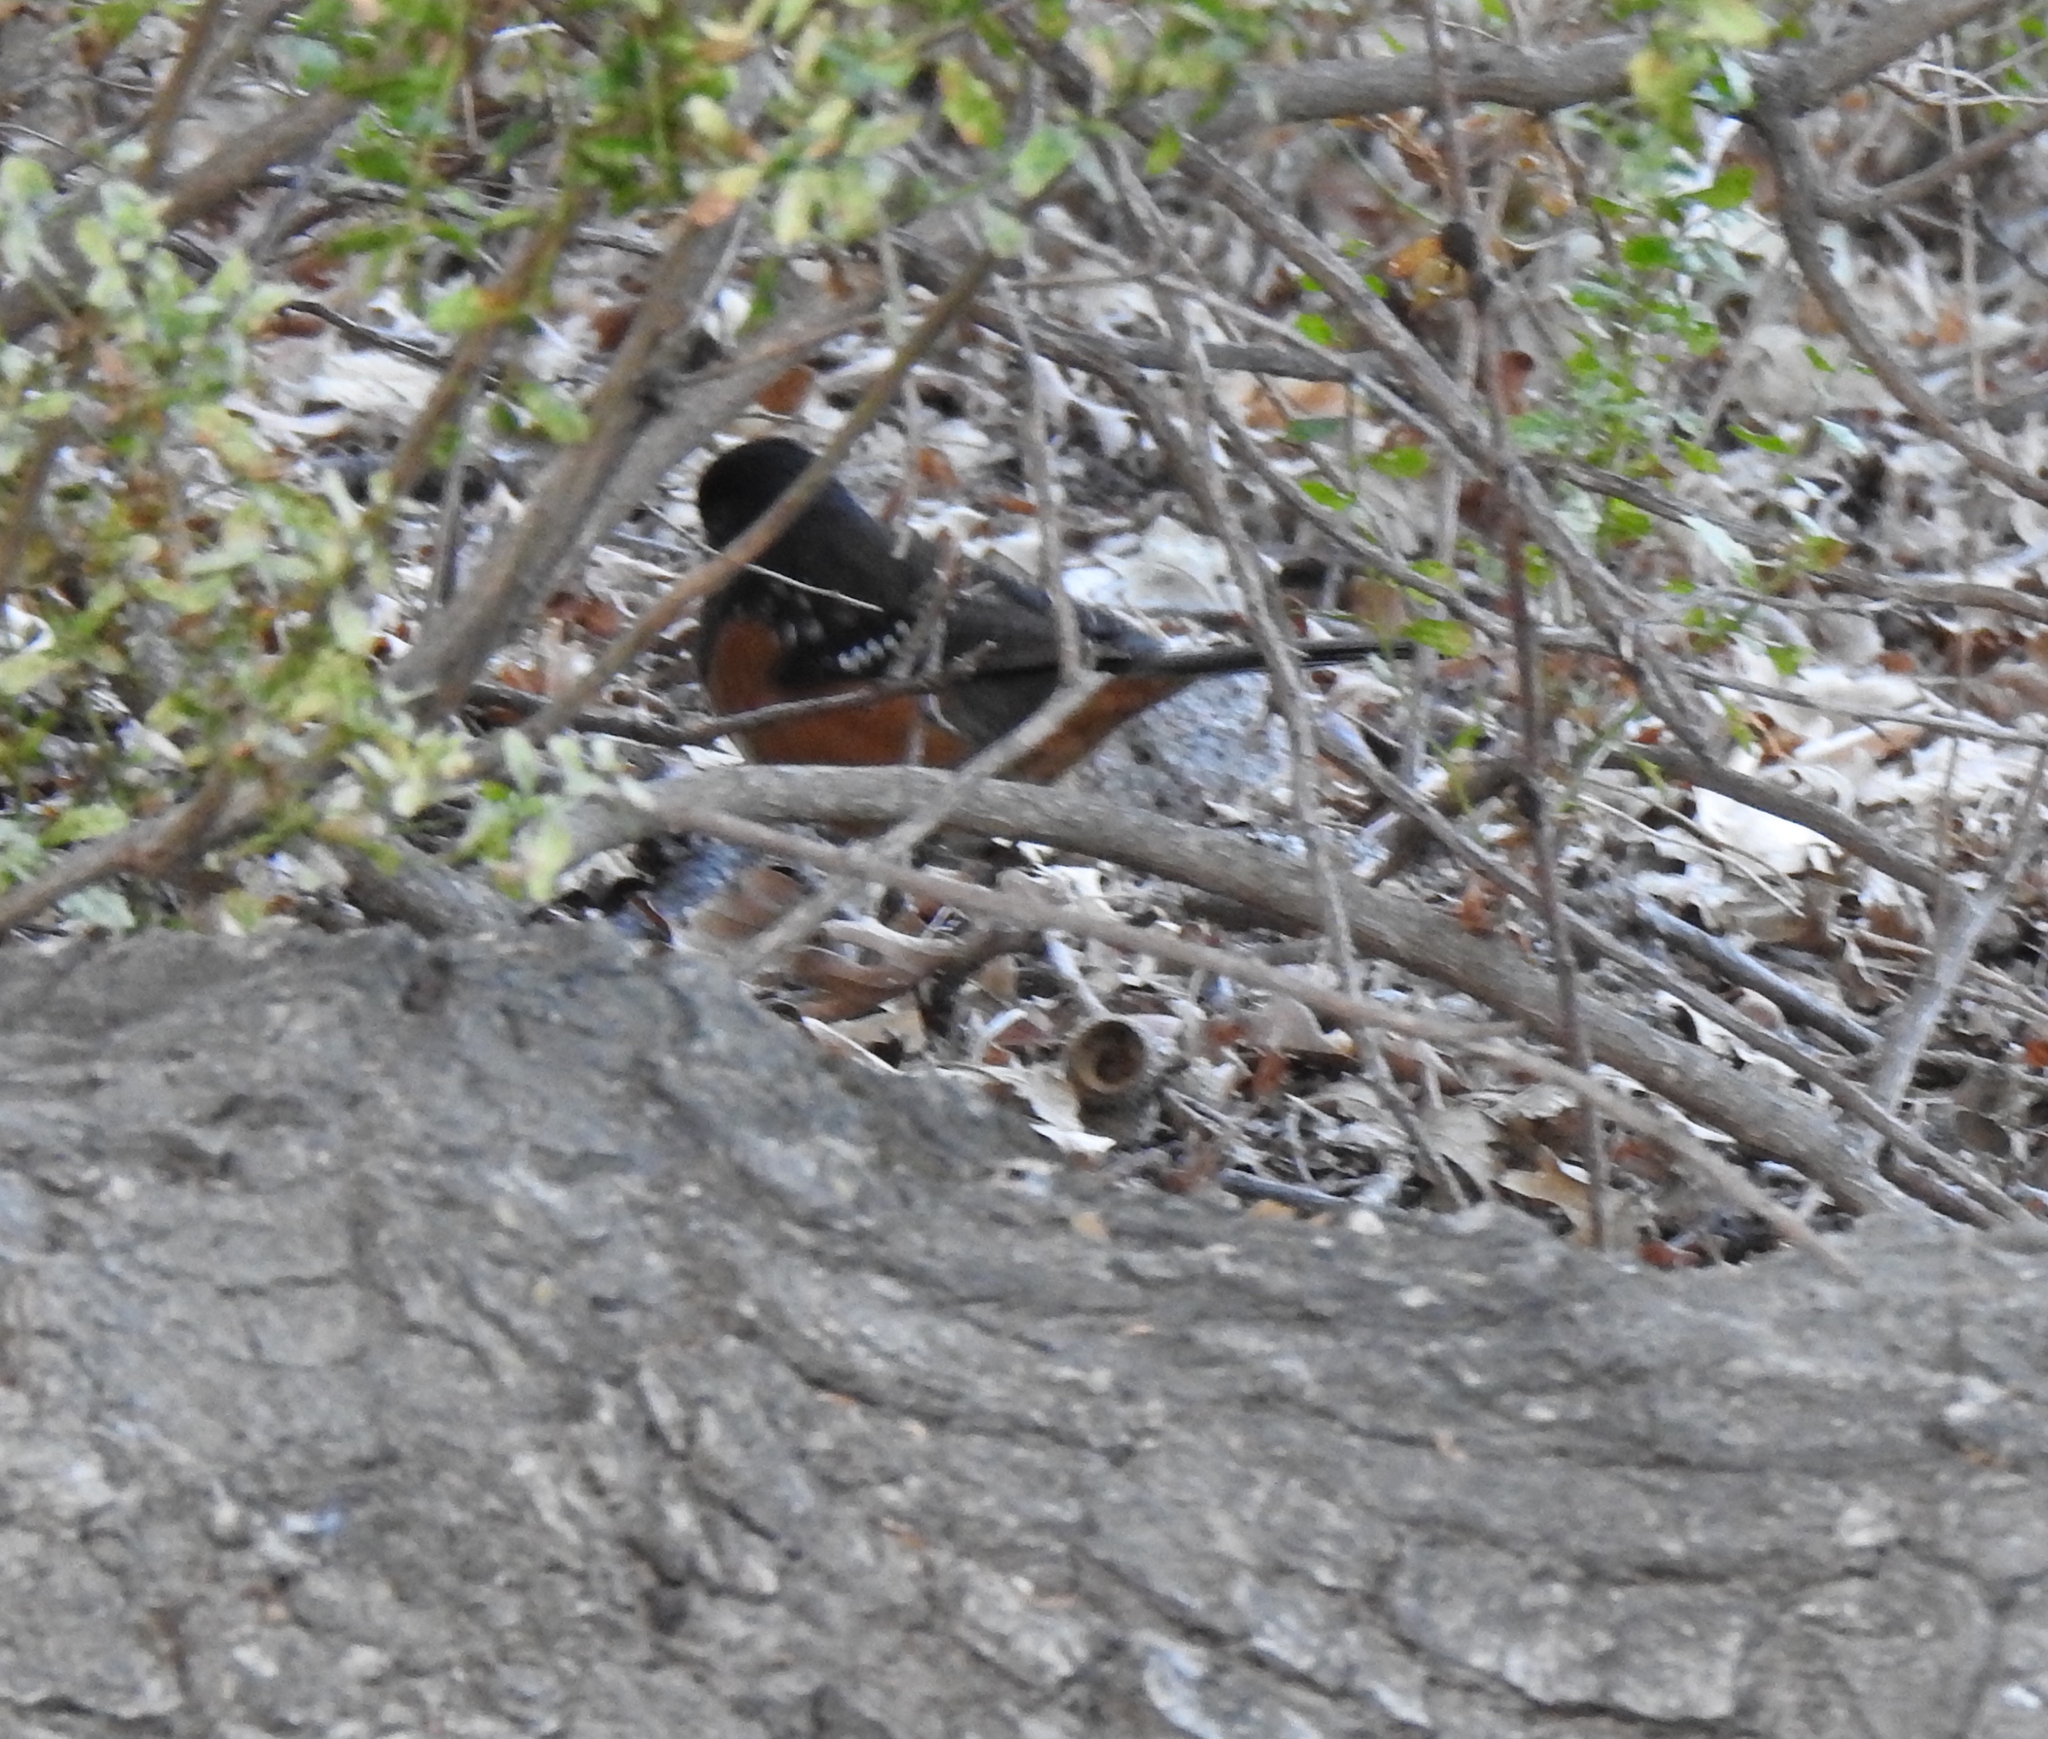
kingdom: Animalia
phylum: Chordata
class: Aves
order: Passeriformes
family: Passerellidae
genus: Pipilo
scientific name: Pipilo maculatus
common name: Spotted towhee
